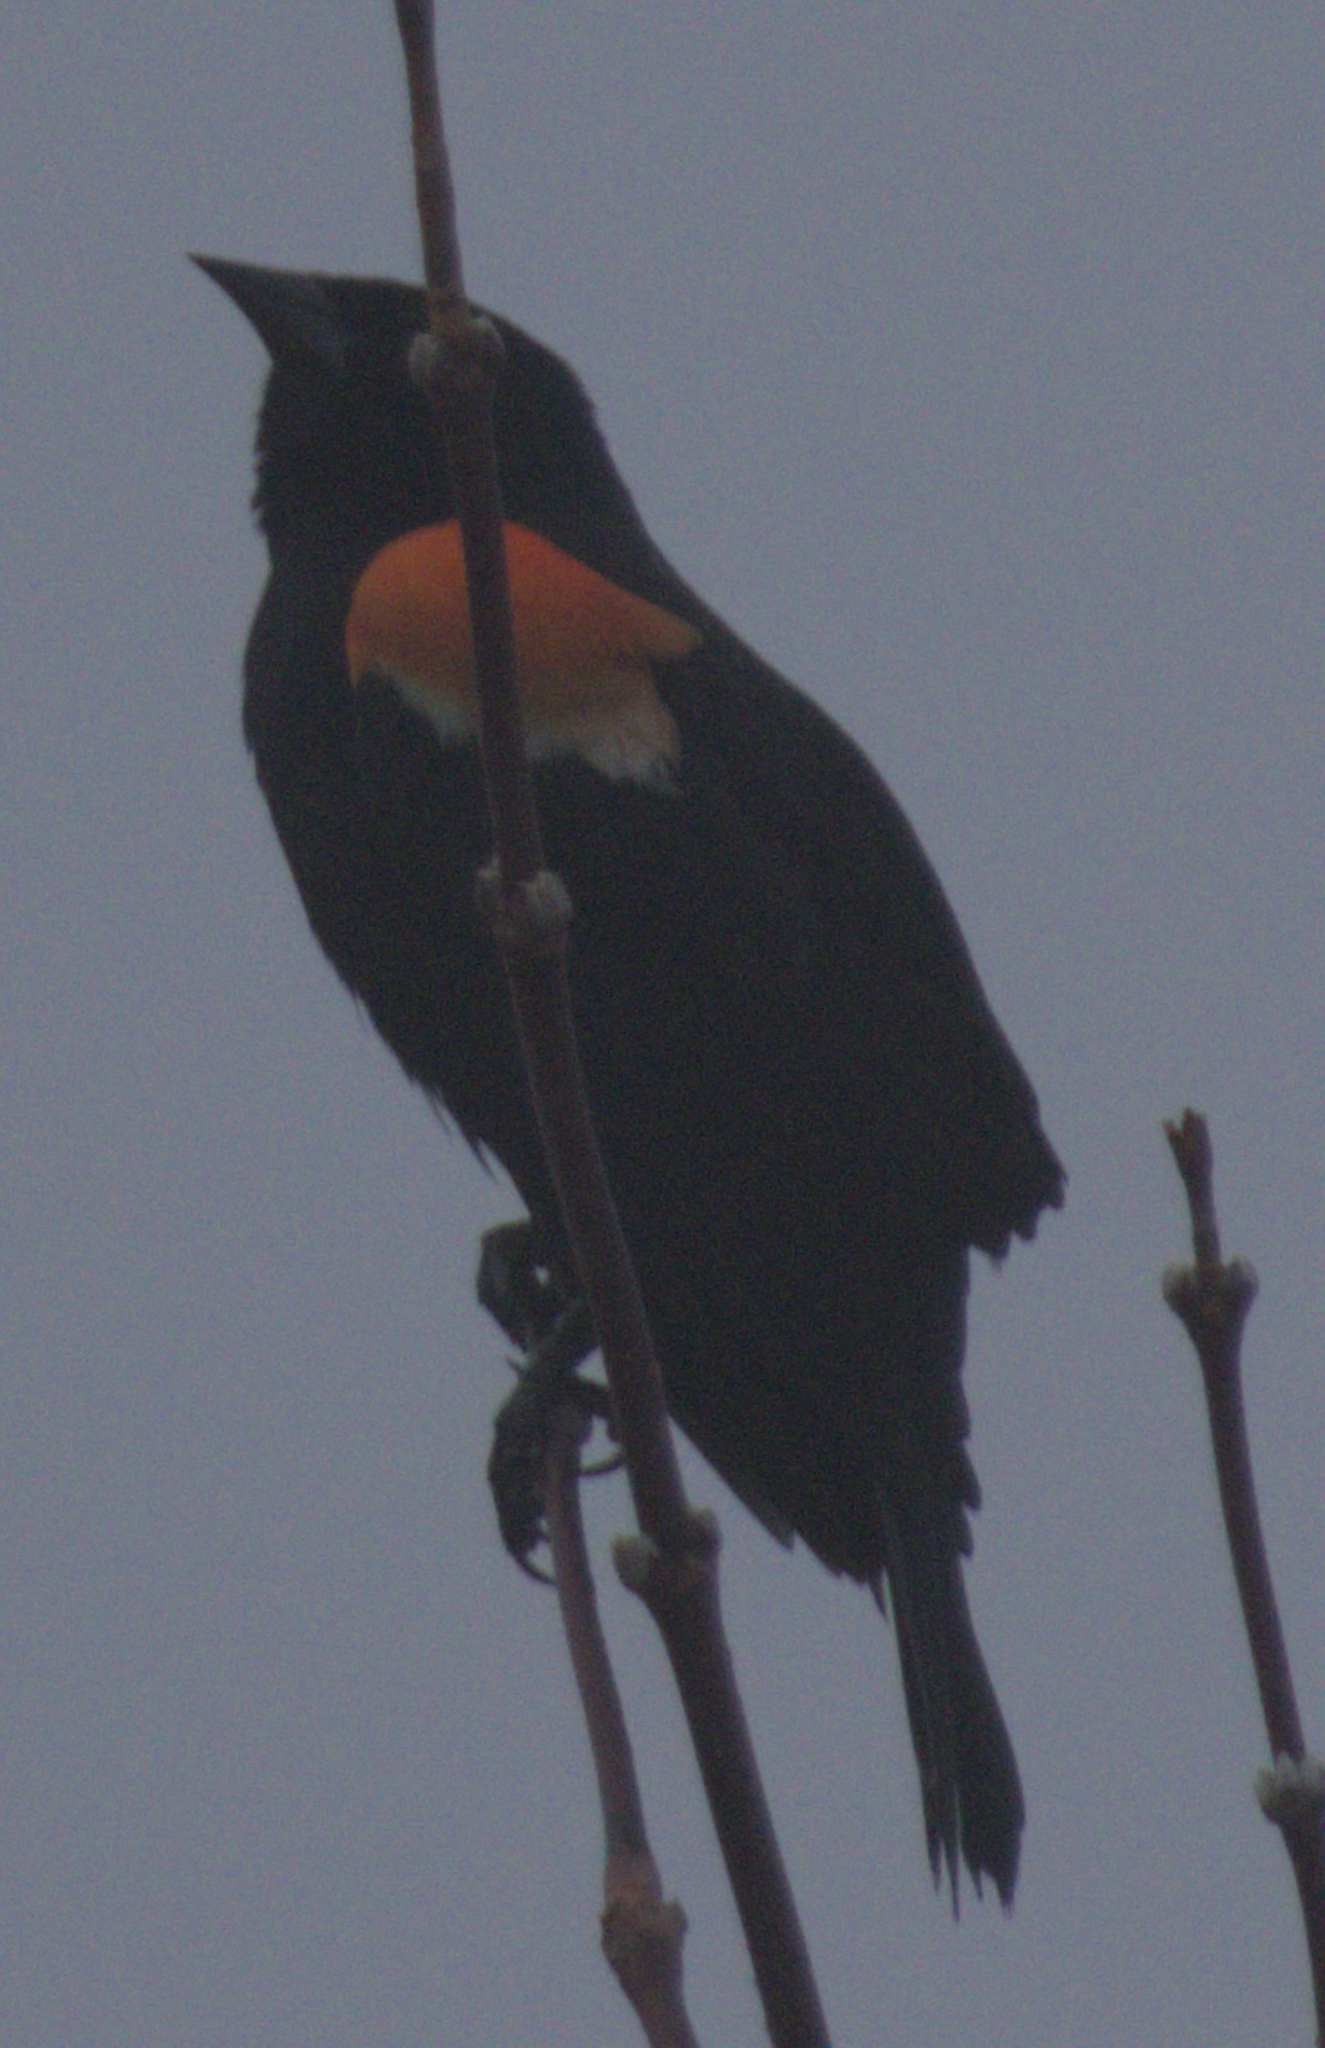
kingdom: Animalia
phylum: Chordata
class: Aves
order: Passeriformes
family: Icteridae
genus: Agelaius
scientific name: Agelaius phoeniceus
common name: Red-winged blackbird
